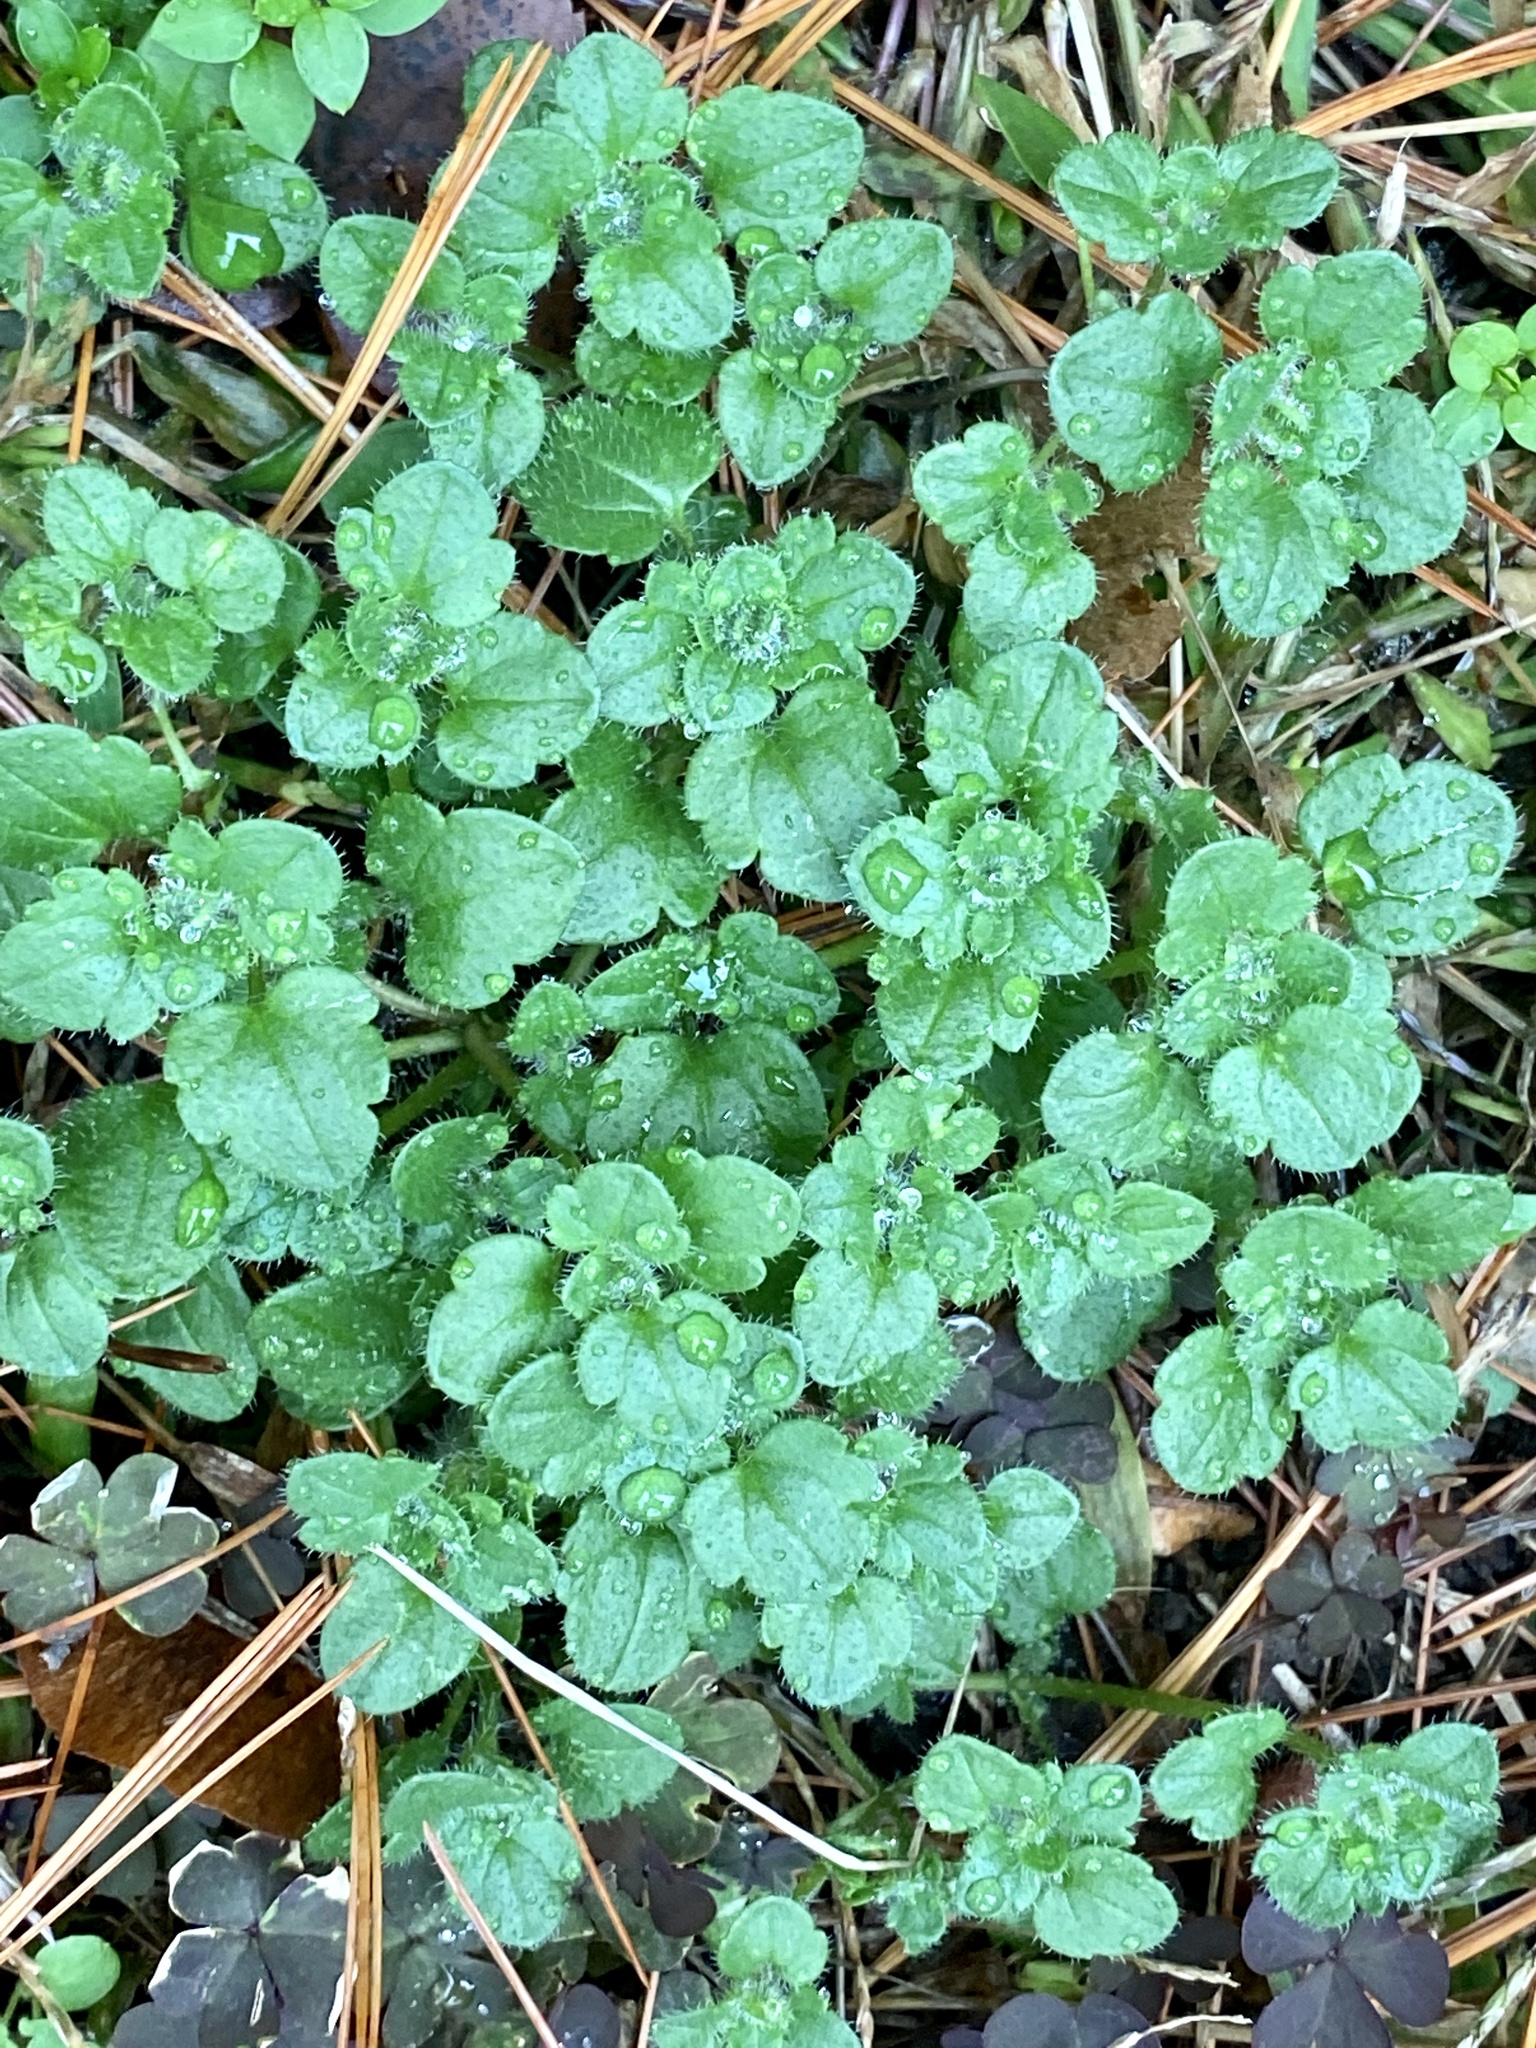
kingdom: Plantae
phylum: Tracheophyta
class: Magnoliopsida
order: Lamiales
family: Plantaginaceae
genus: Veronica
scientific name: Veronica hederifolia
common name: Ivy-leaved speedwell
